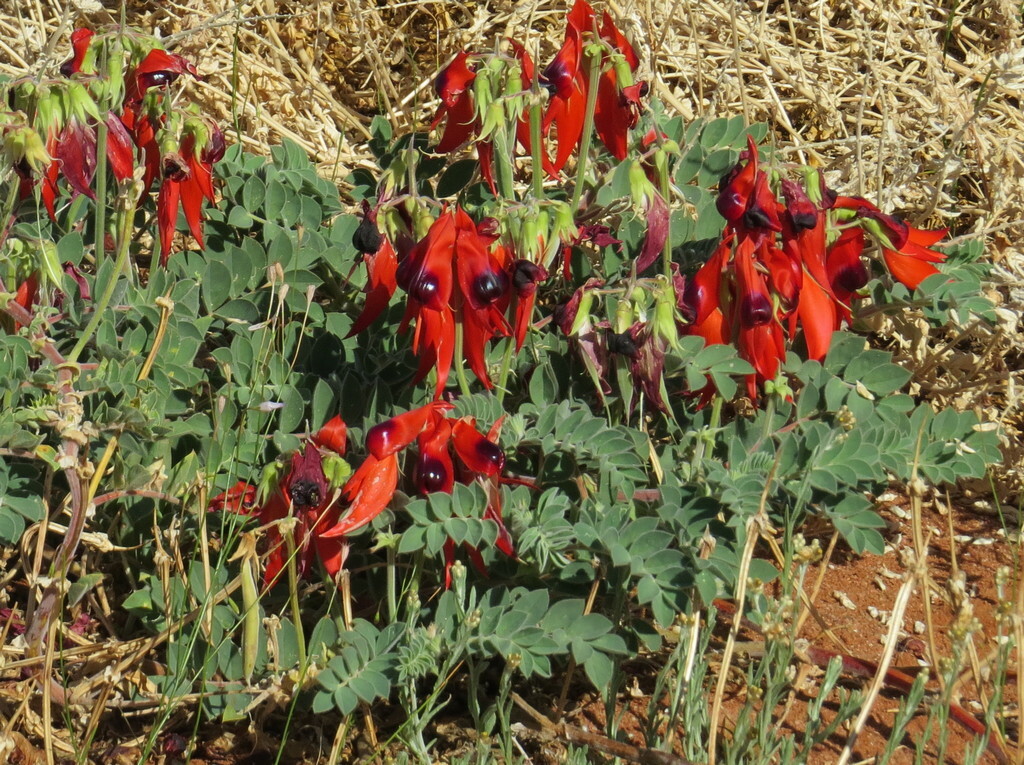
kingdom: Plantae
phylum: Tracheophyta
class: Magnoliopsida
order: Fabales
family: Fabaceae
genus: Swainsona
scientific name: Swainsona formosa
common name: Sturt's desert-pea
